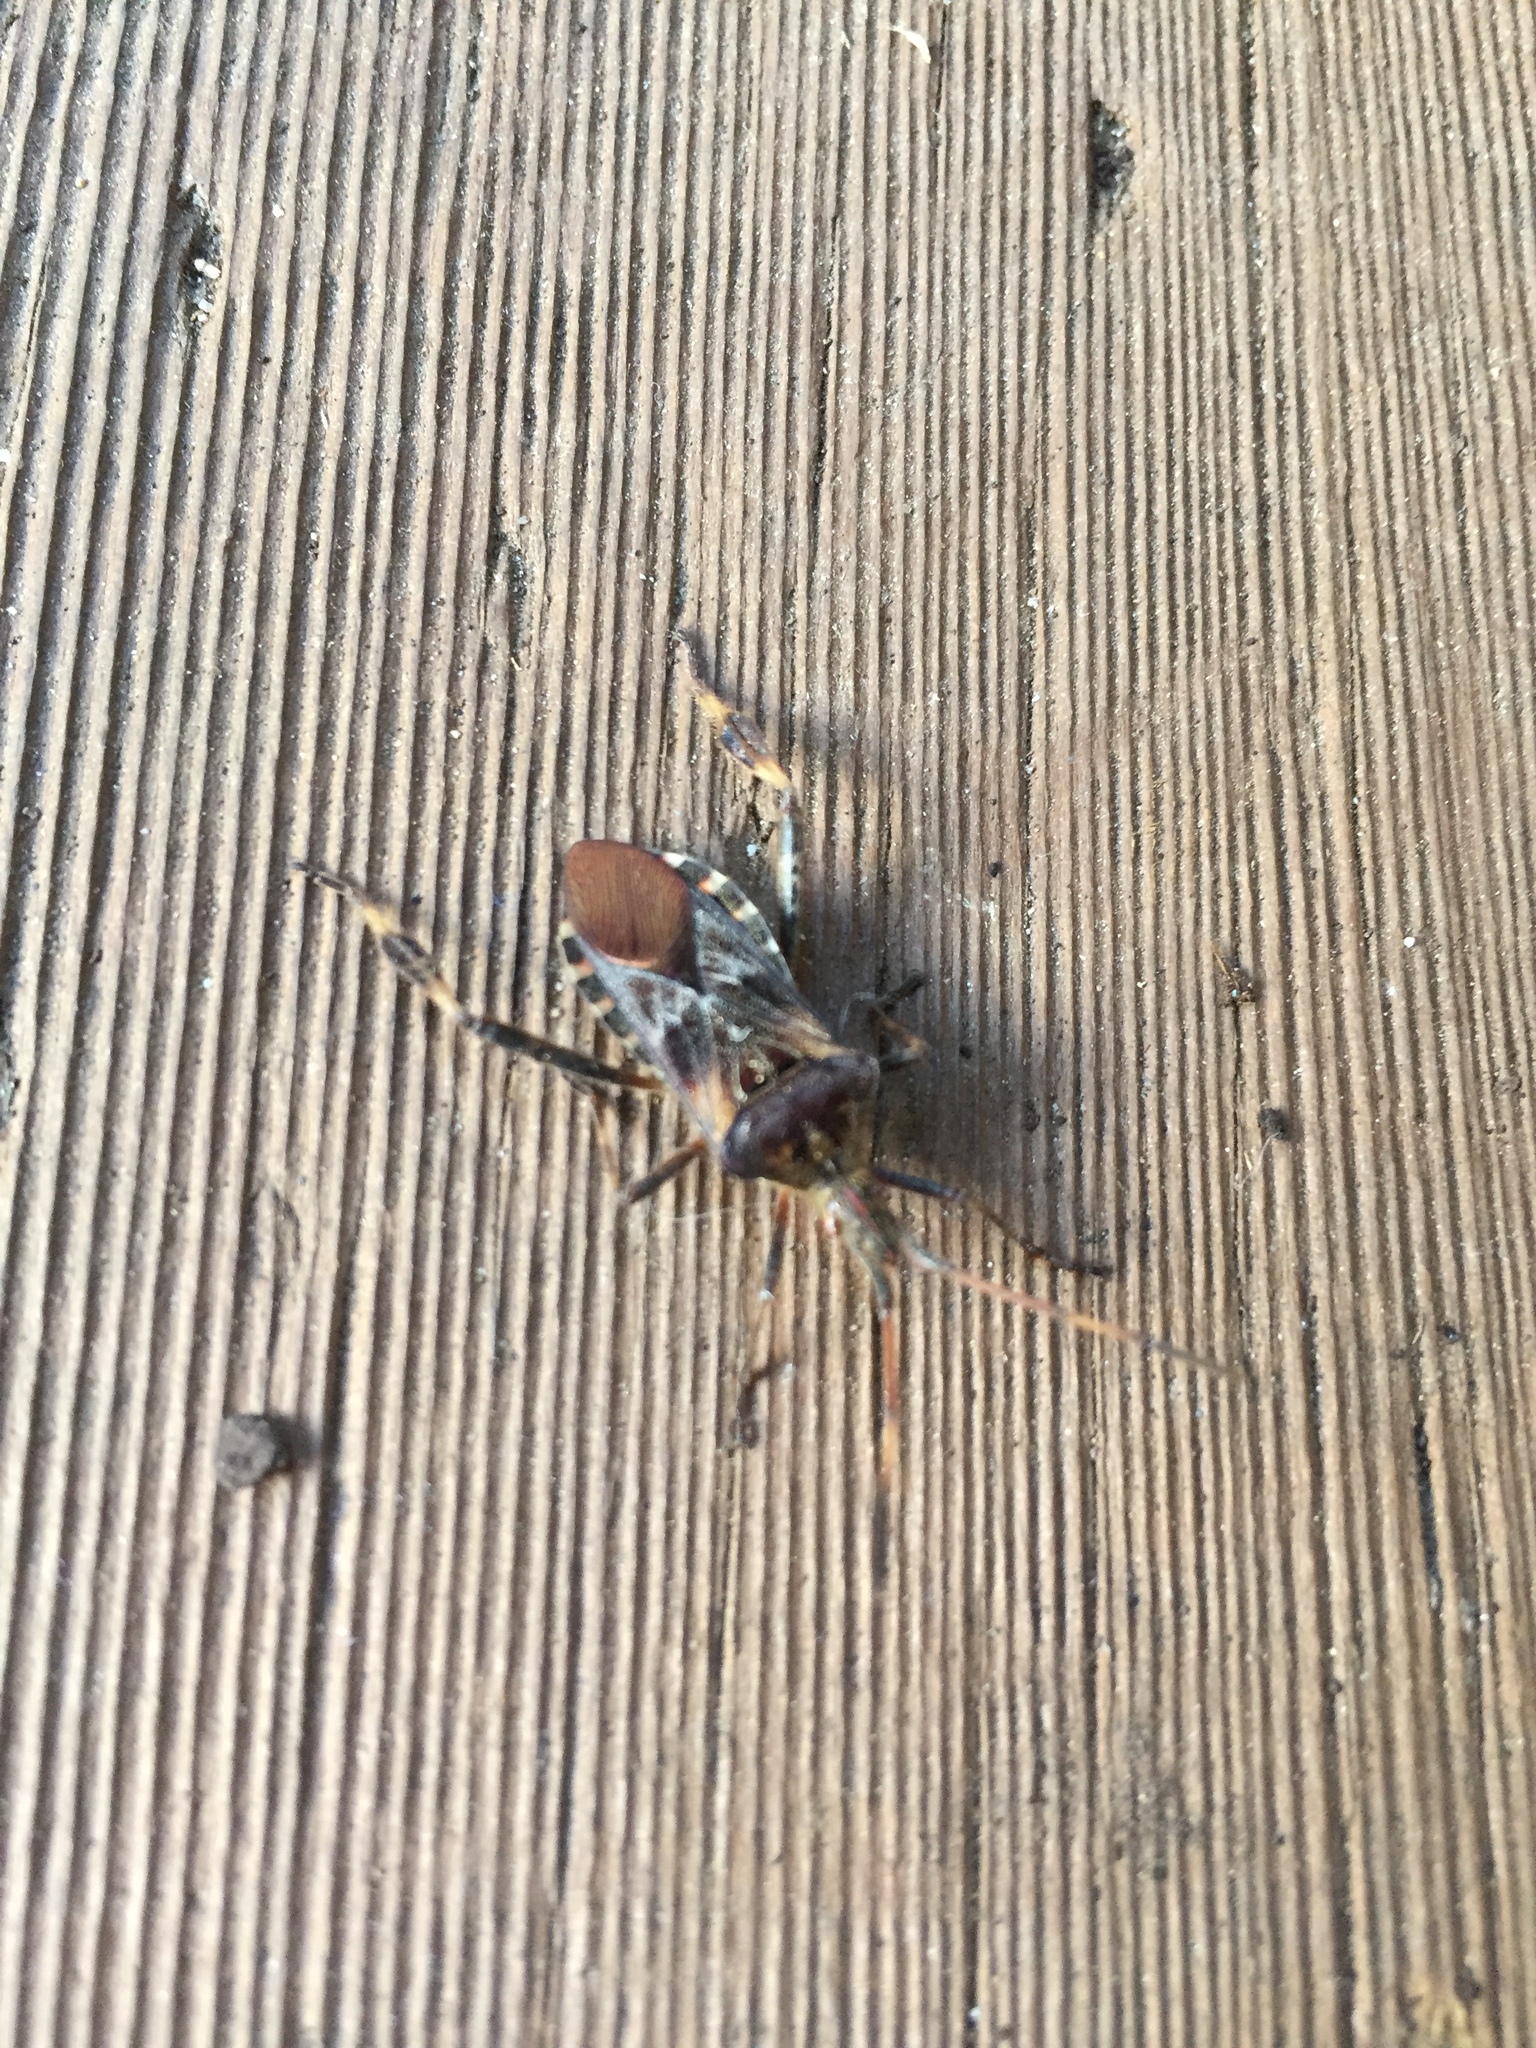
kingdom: Animalia
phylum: Arthropoda
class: Insecta
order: Hemiptera
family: Coreidae
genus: Leptoglossus
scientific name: Leptoglossus occidentalis
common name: Western conifer-seed bug
